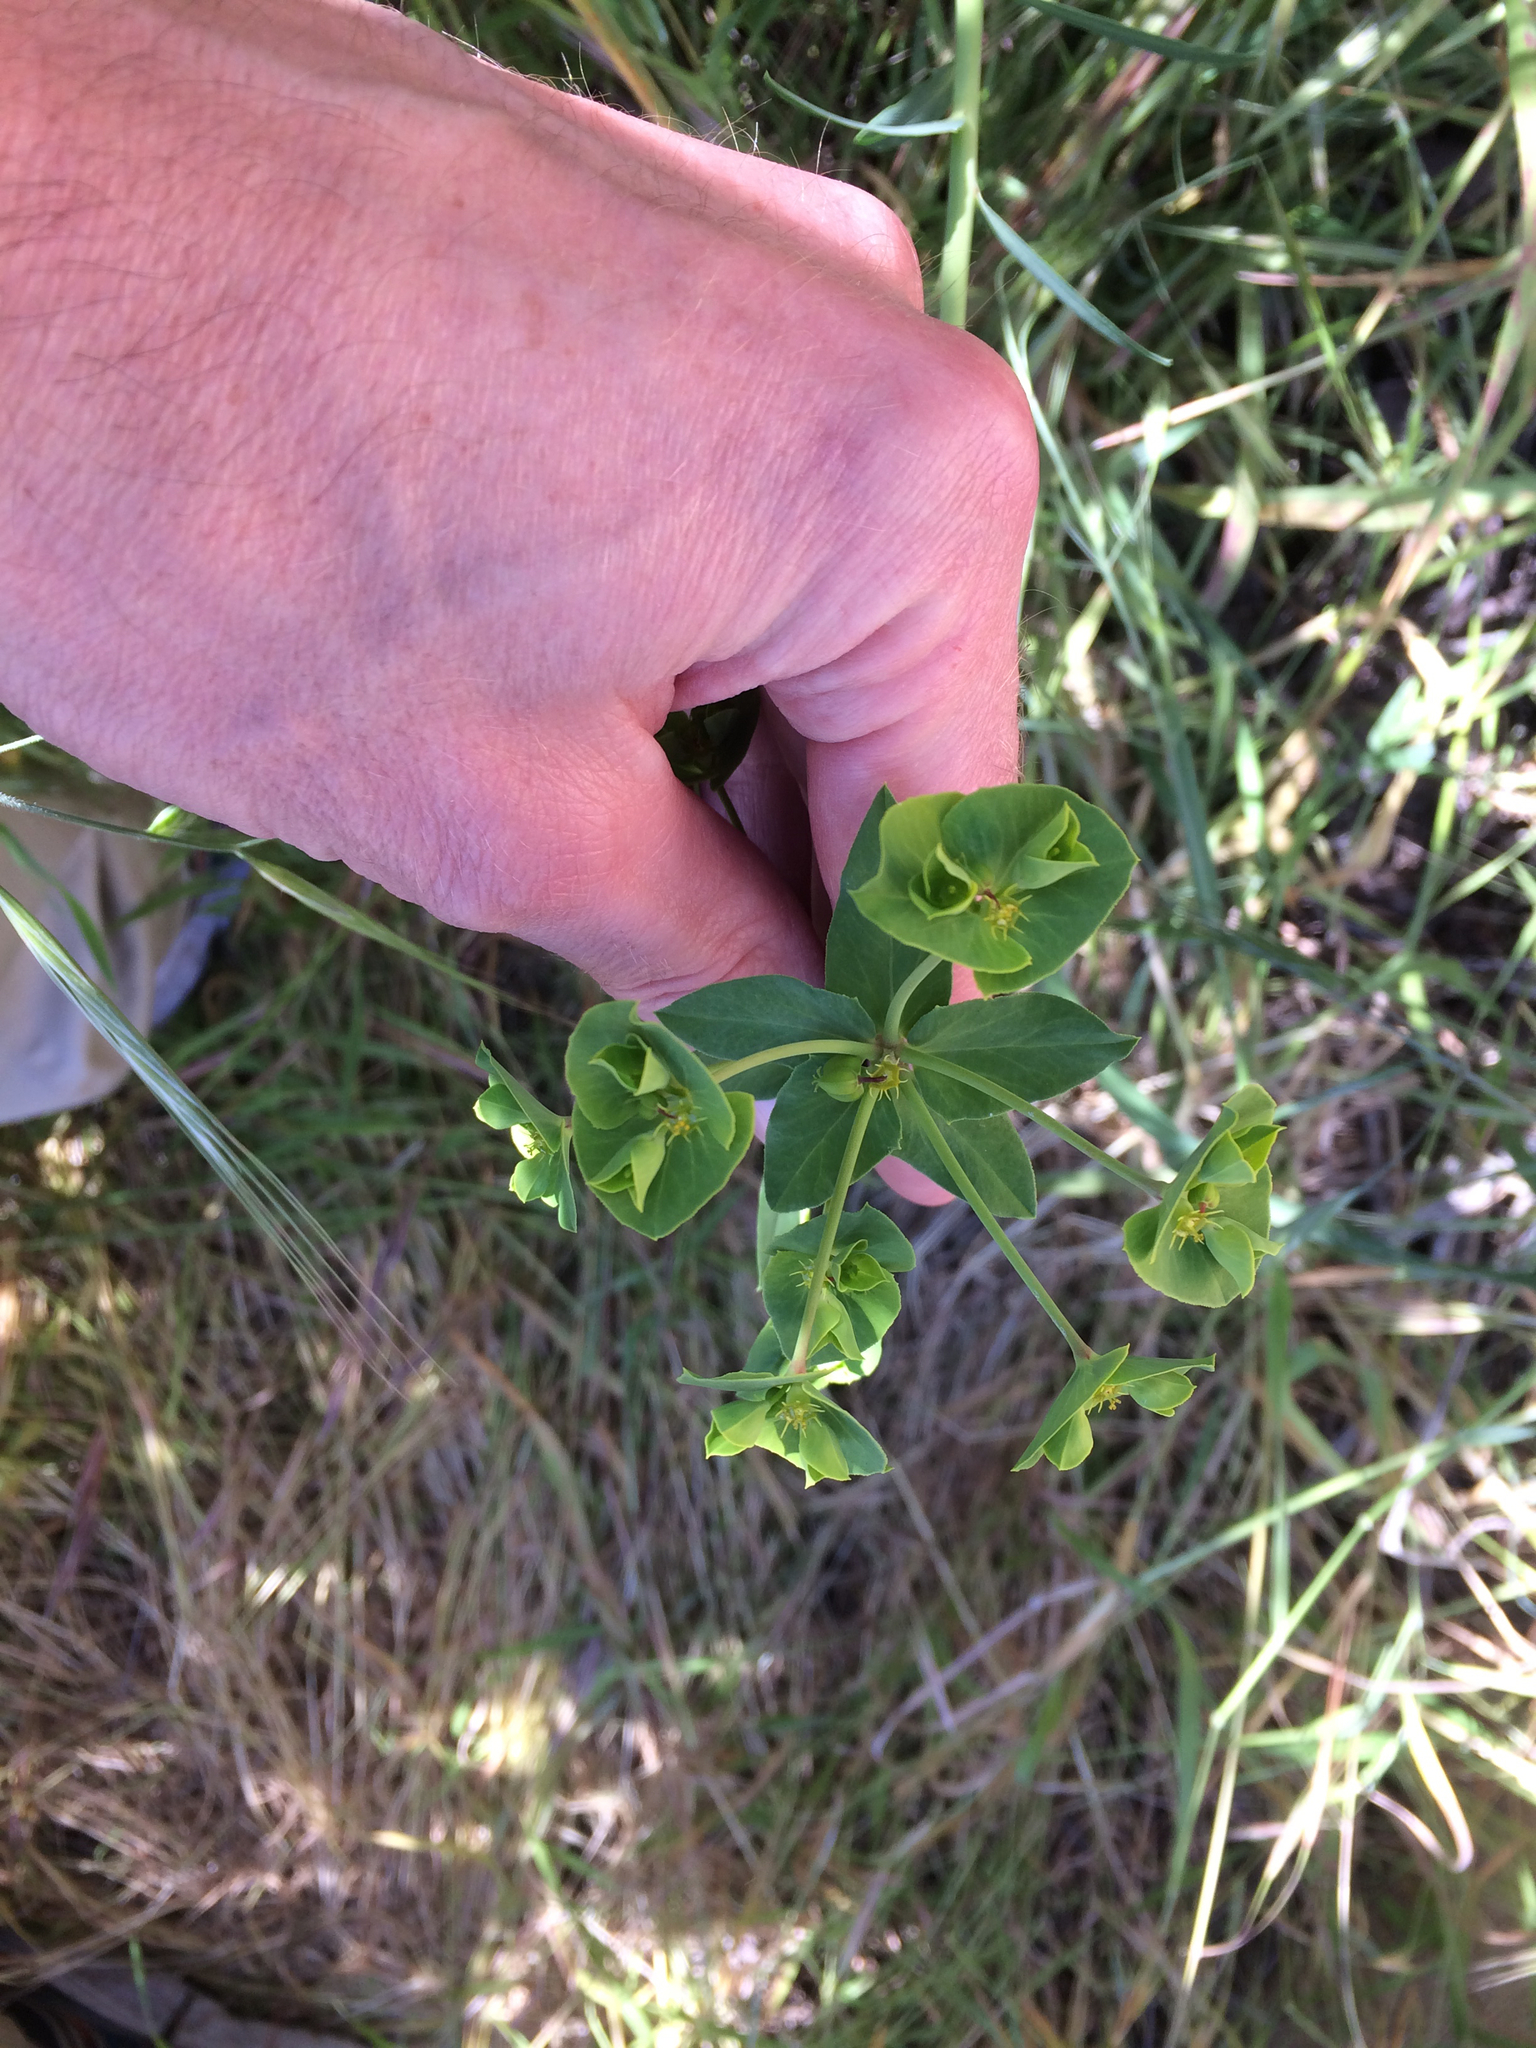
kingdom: Plantae
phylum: Tracheophyta
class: Magnoliopsida
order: Malpighiales
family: Euphorbiaceae
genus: Euphorbia
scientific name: Euphorbia terracina
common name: Geraldton carnation weed
